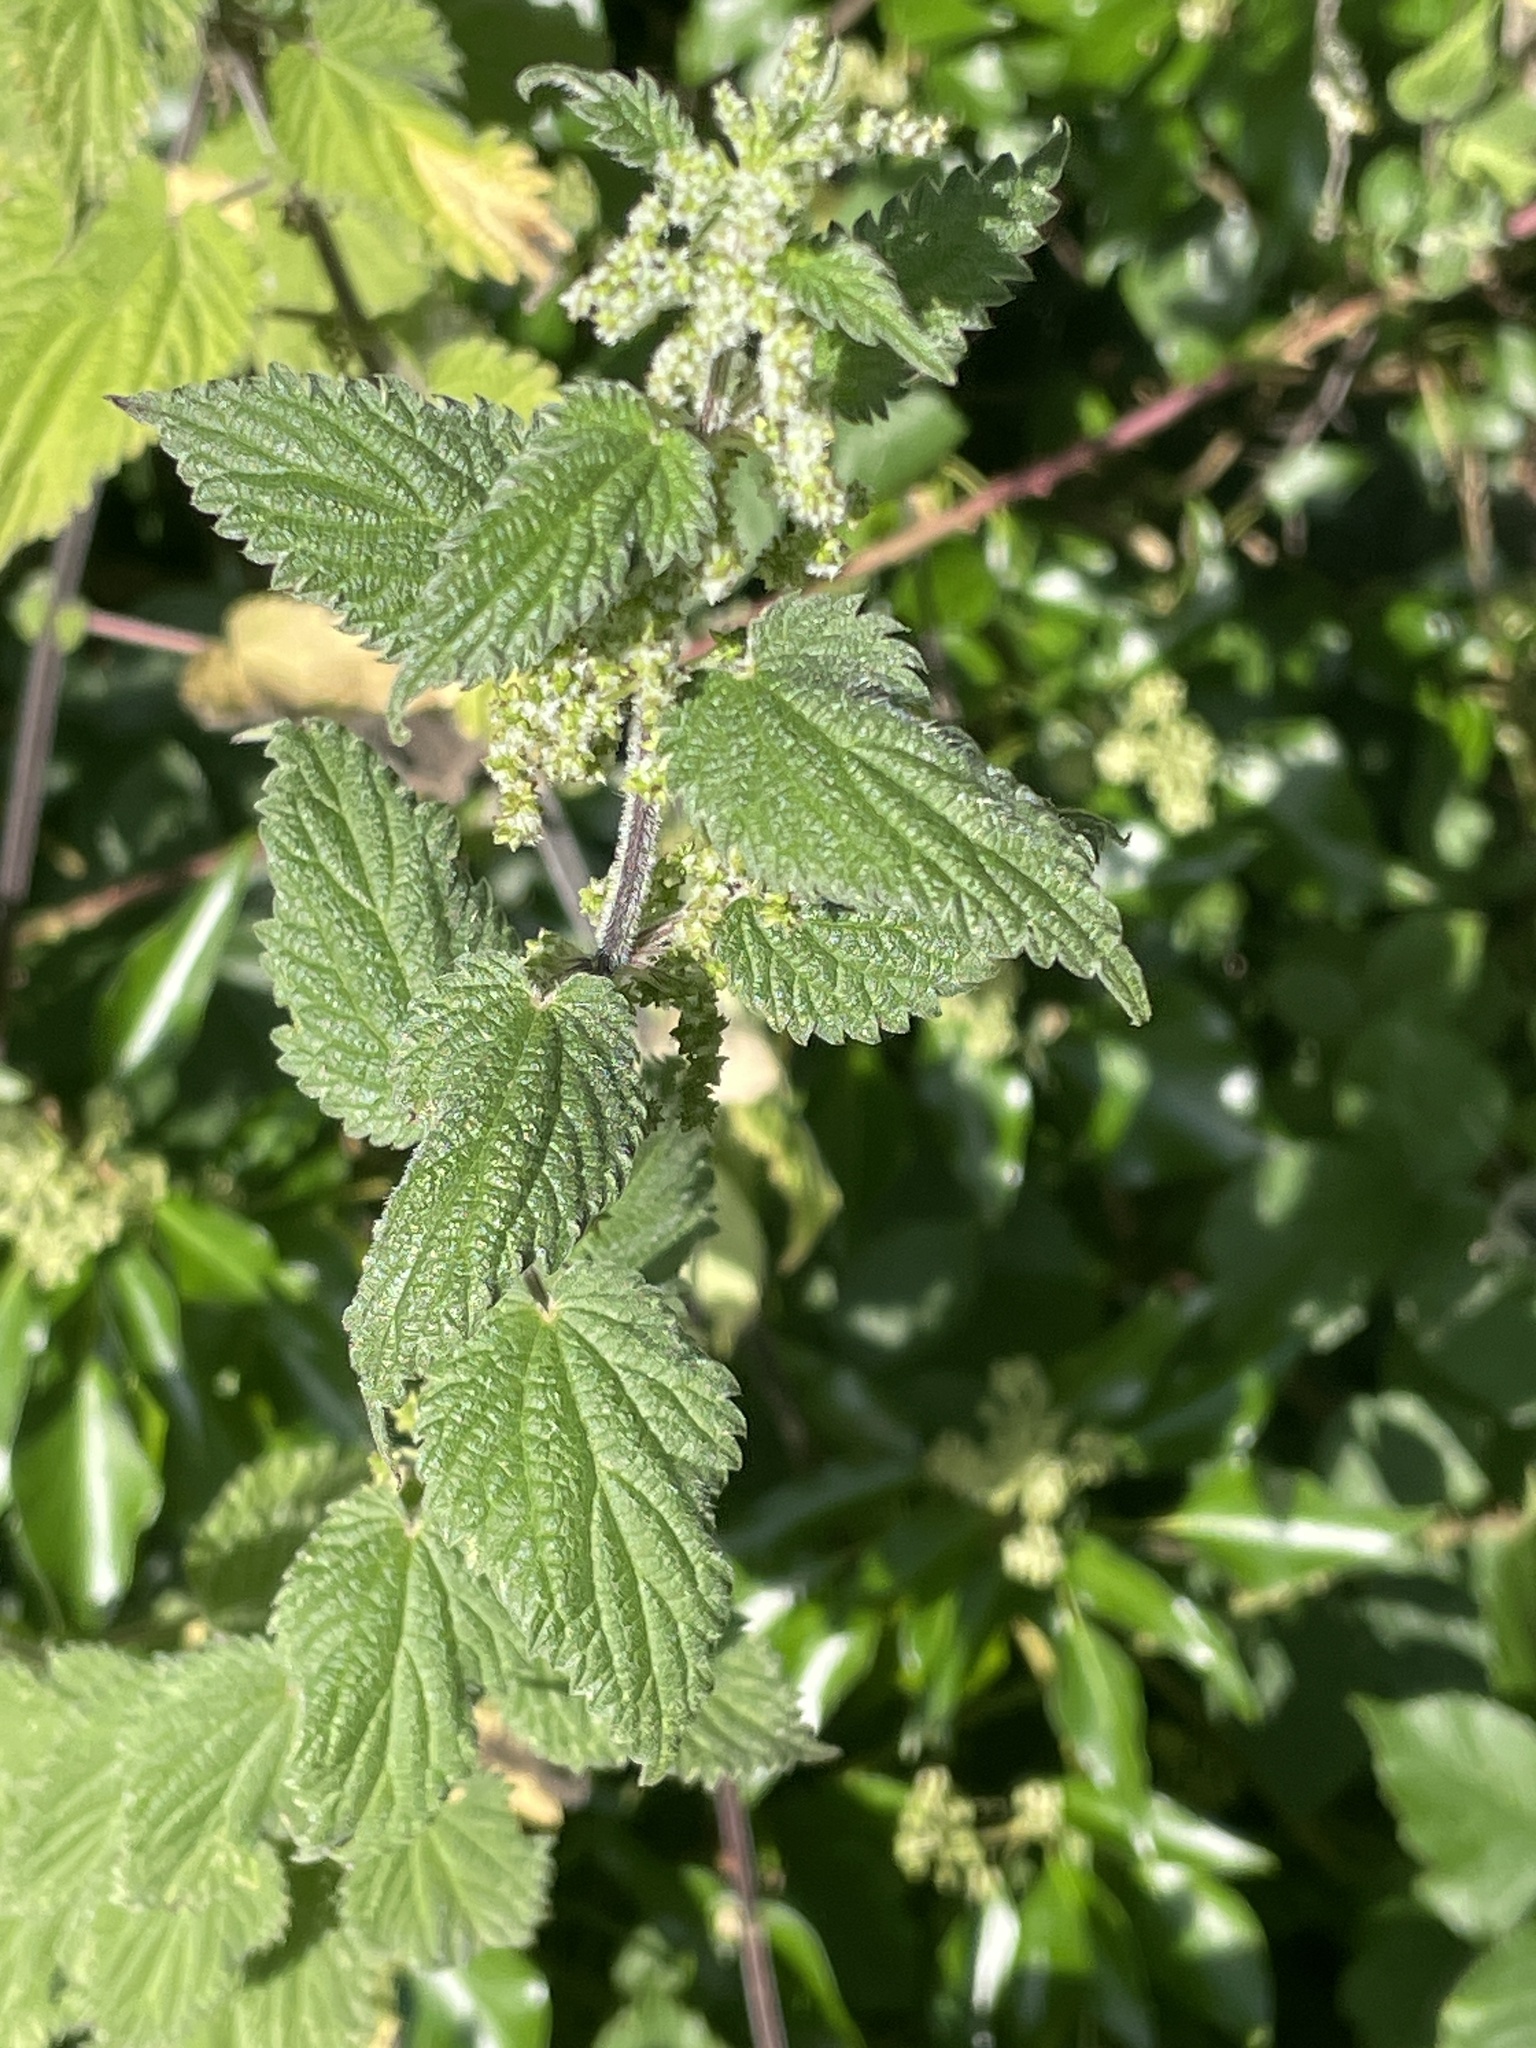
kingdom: Plantae
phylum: Tracheophyta
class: Magnoliopsida
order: Rosales
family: Urticaceae
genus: Urtica
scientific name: Urtica dioica
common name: Common nettle
